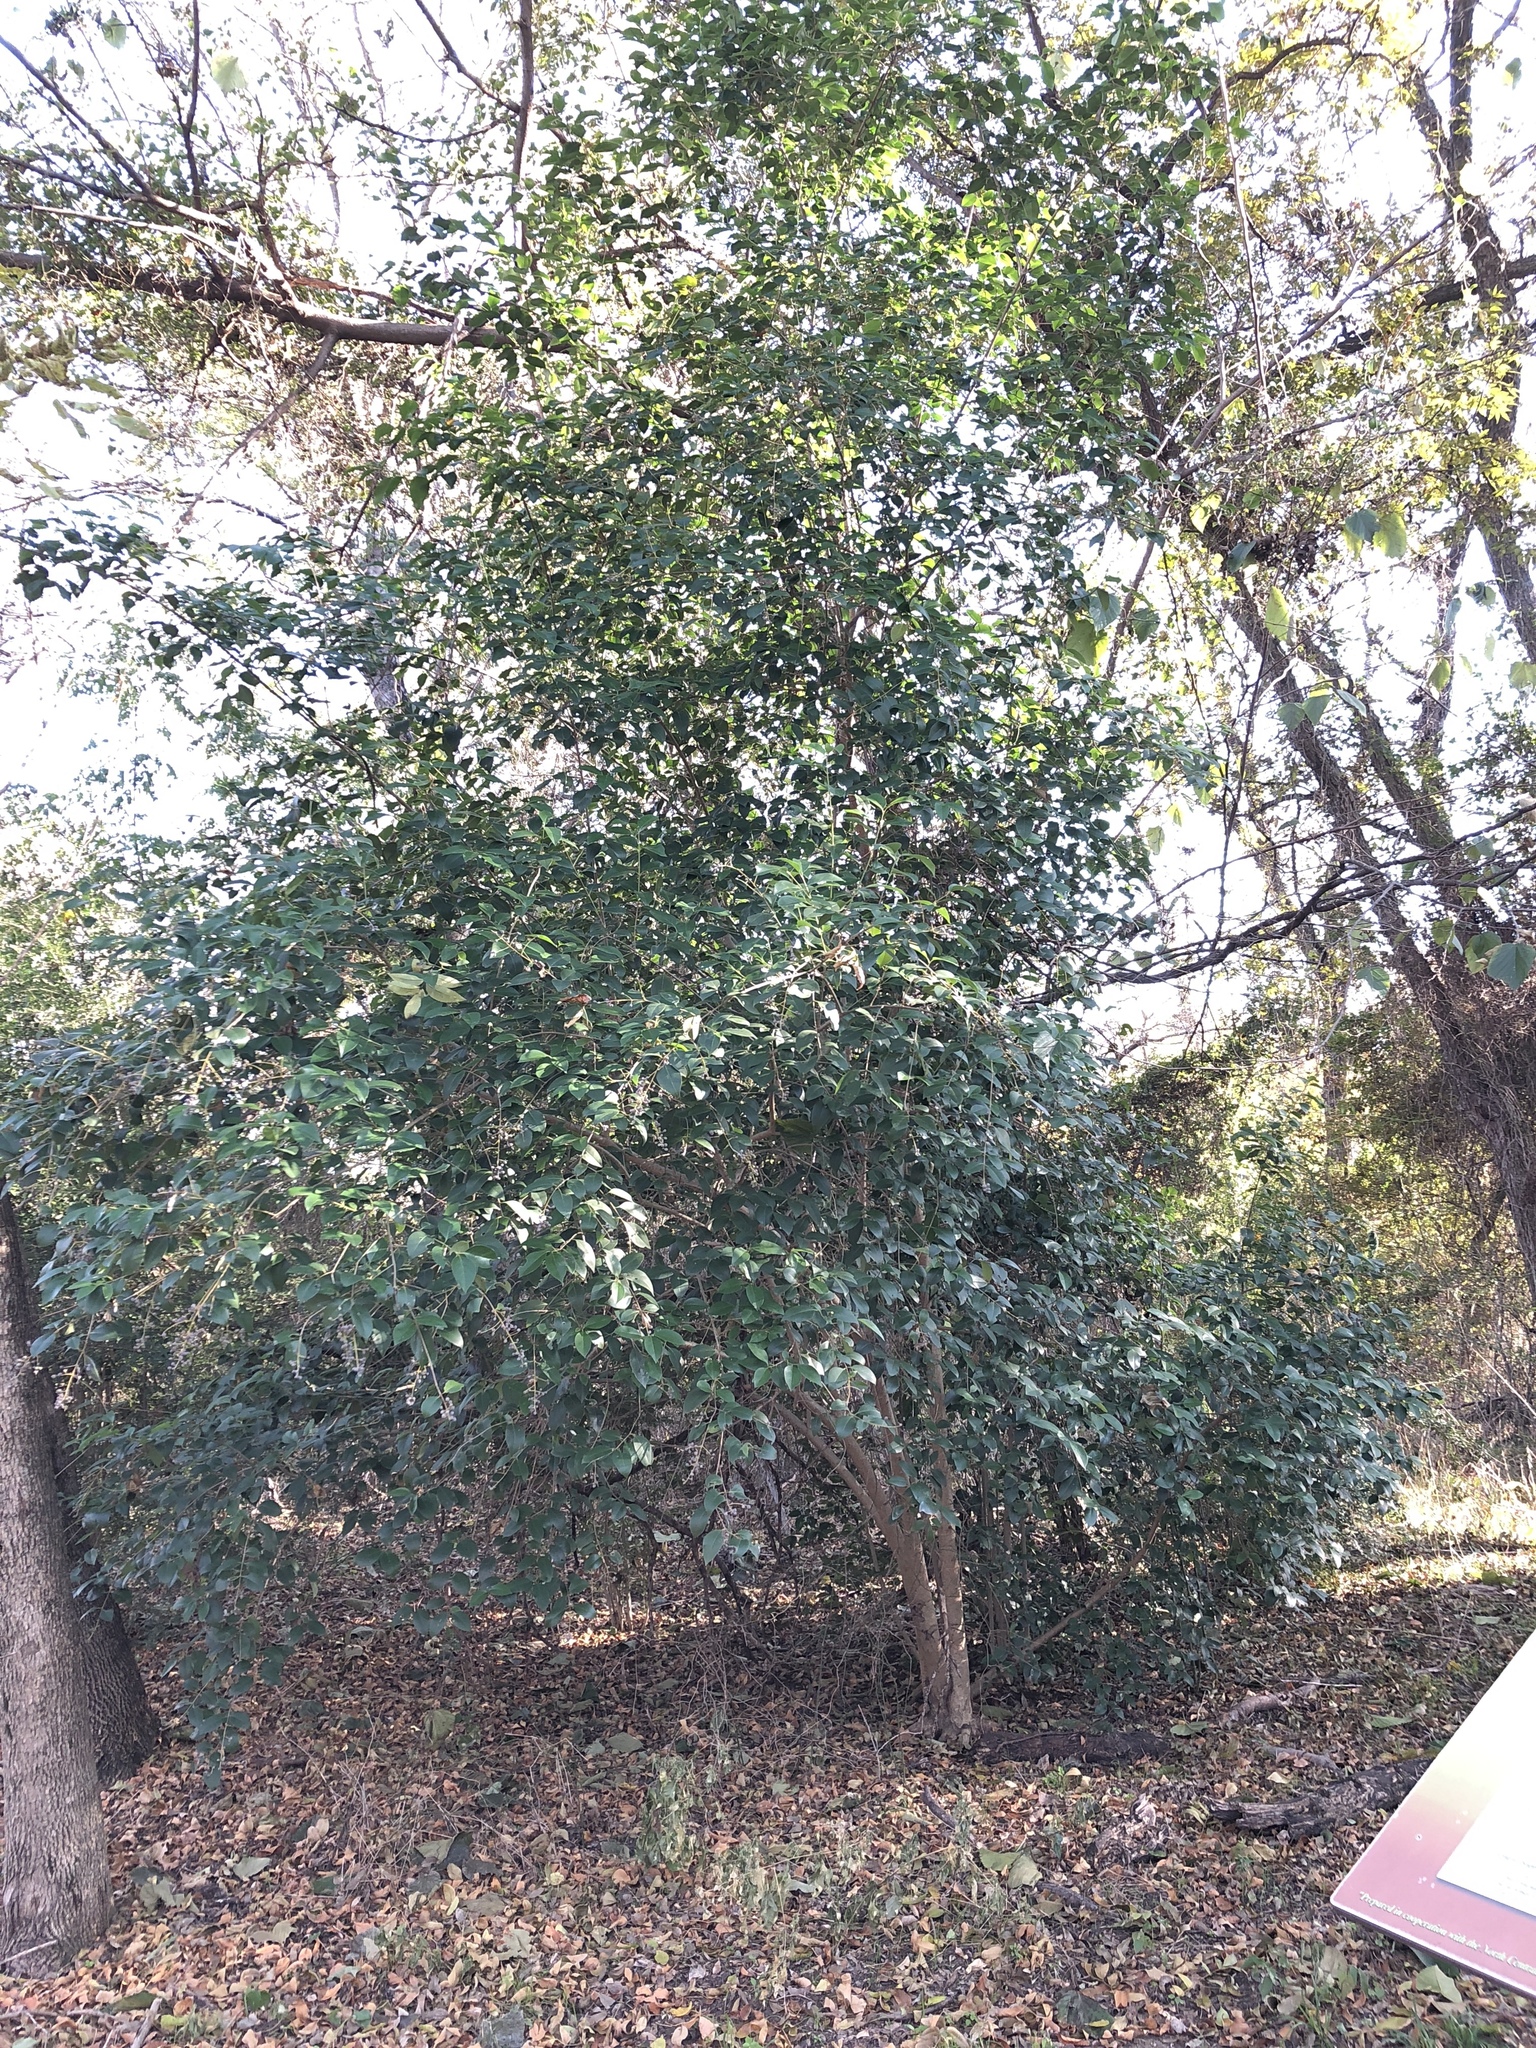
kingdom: Plantae
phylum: Tracheophyta
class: Magnoliopsida
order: Lamiales
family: Oleaceae
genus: Ligustrum
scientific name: Ligustrum lucidum
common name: Glossy privet
